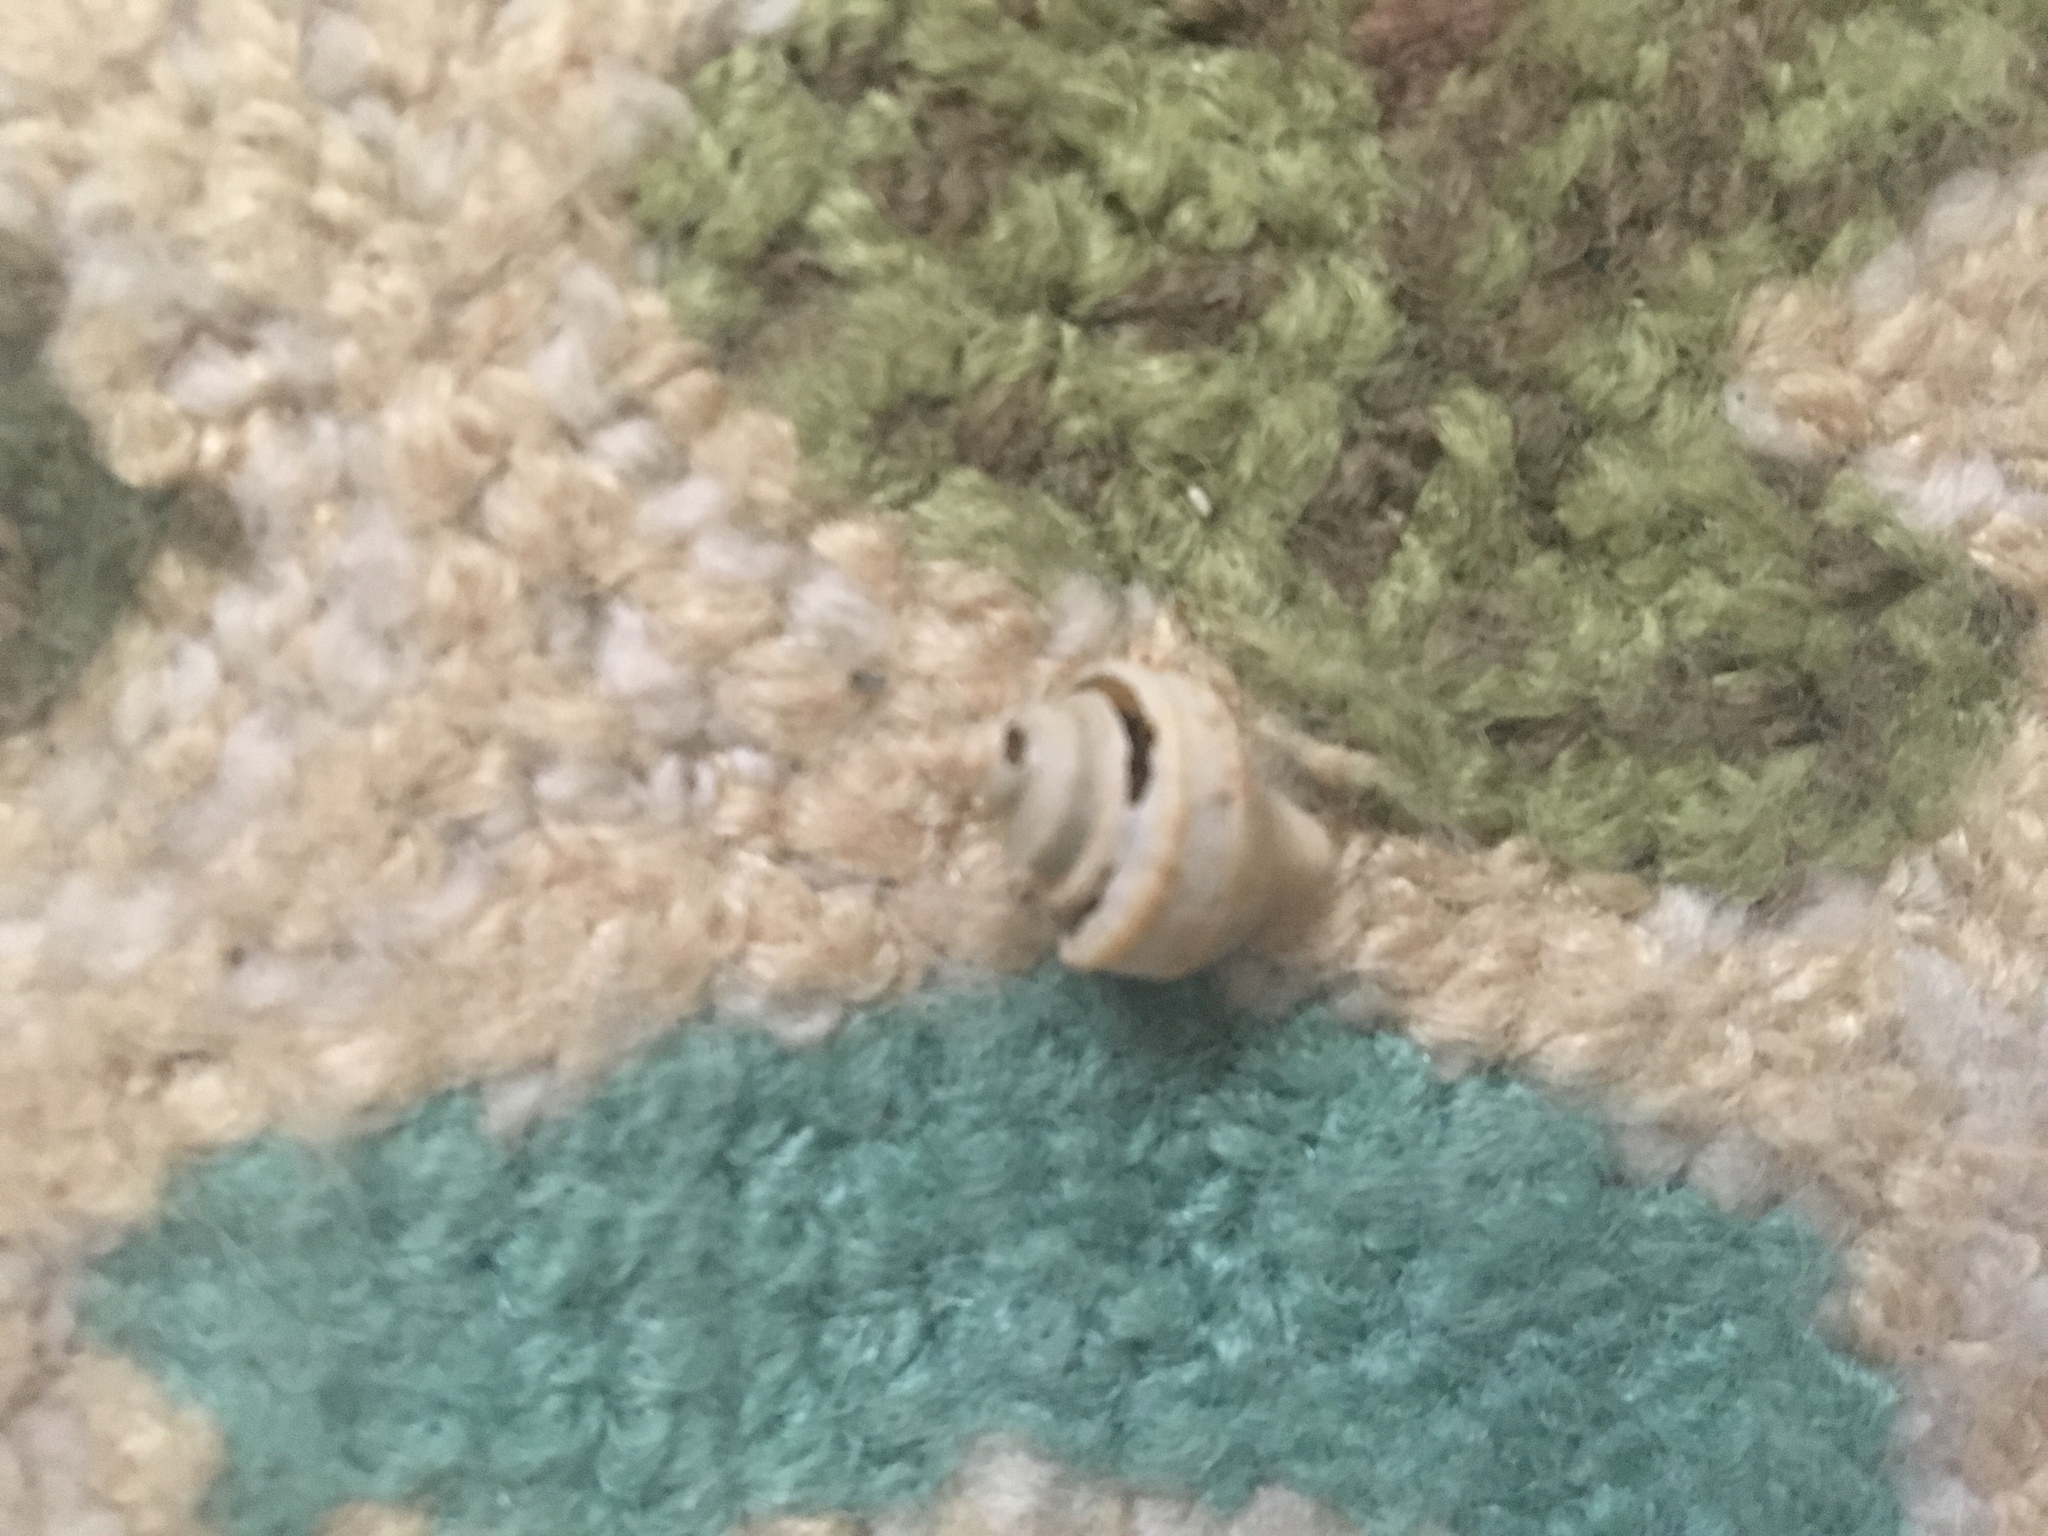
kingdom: Animalia
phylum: Mollusca
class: Gastropoda
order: Neogastropoda
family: Busyconidae
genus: Busycotypus
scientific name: Busycotypus canaliculatus
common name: Channeled whelk
